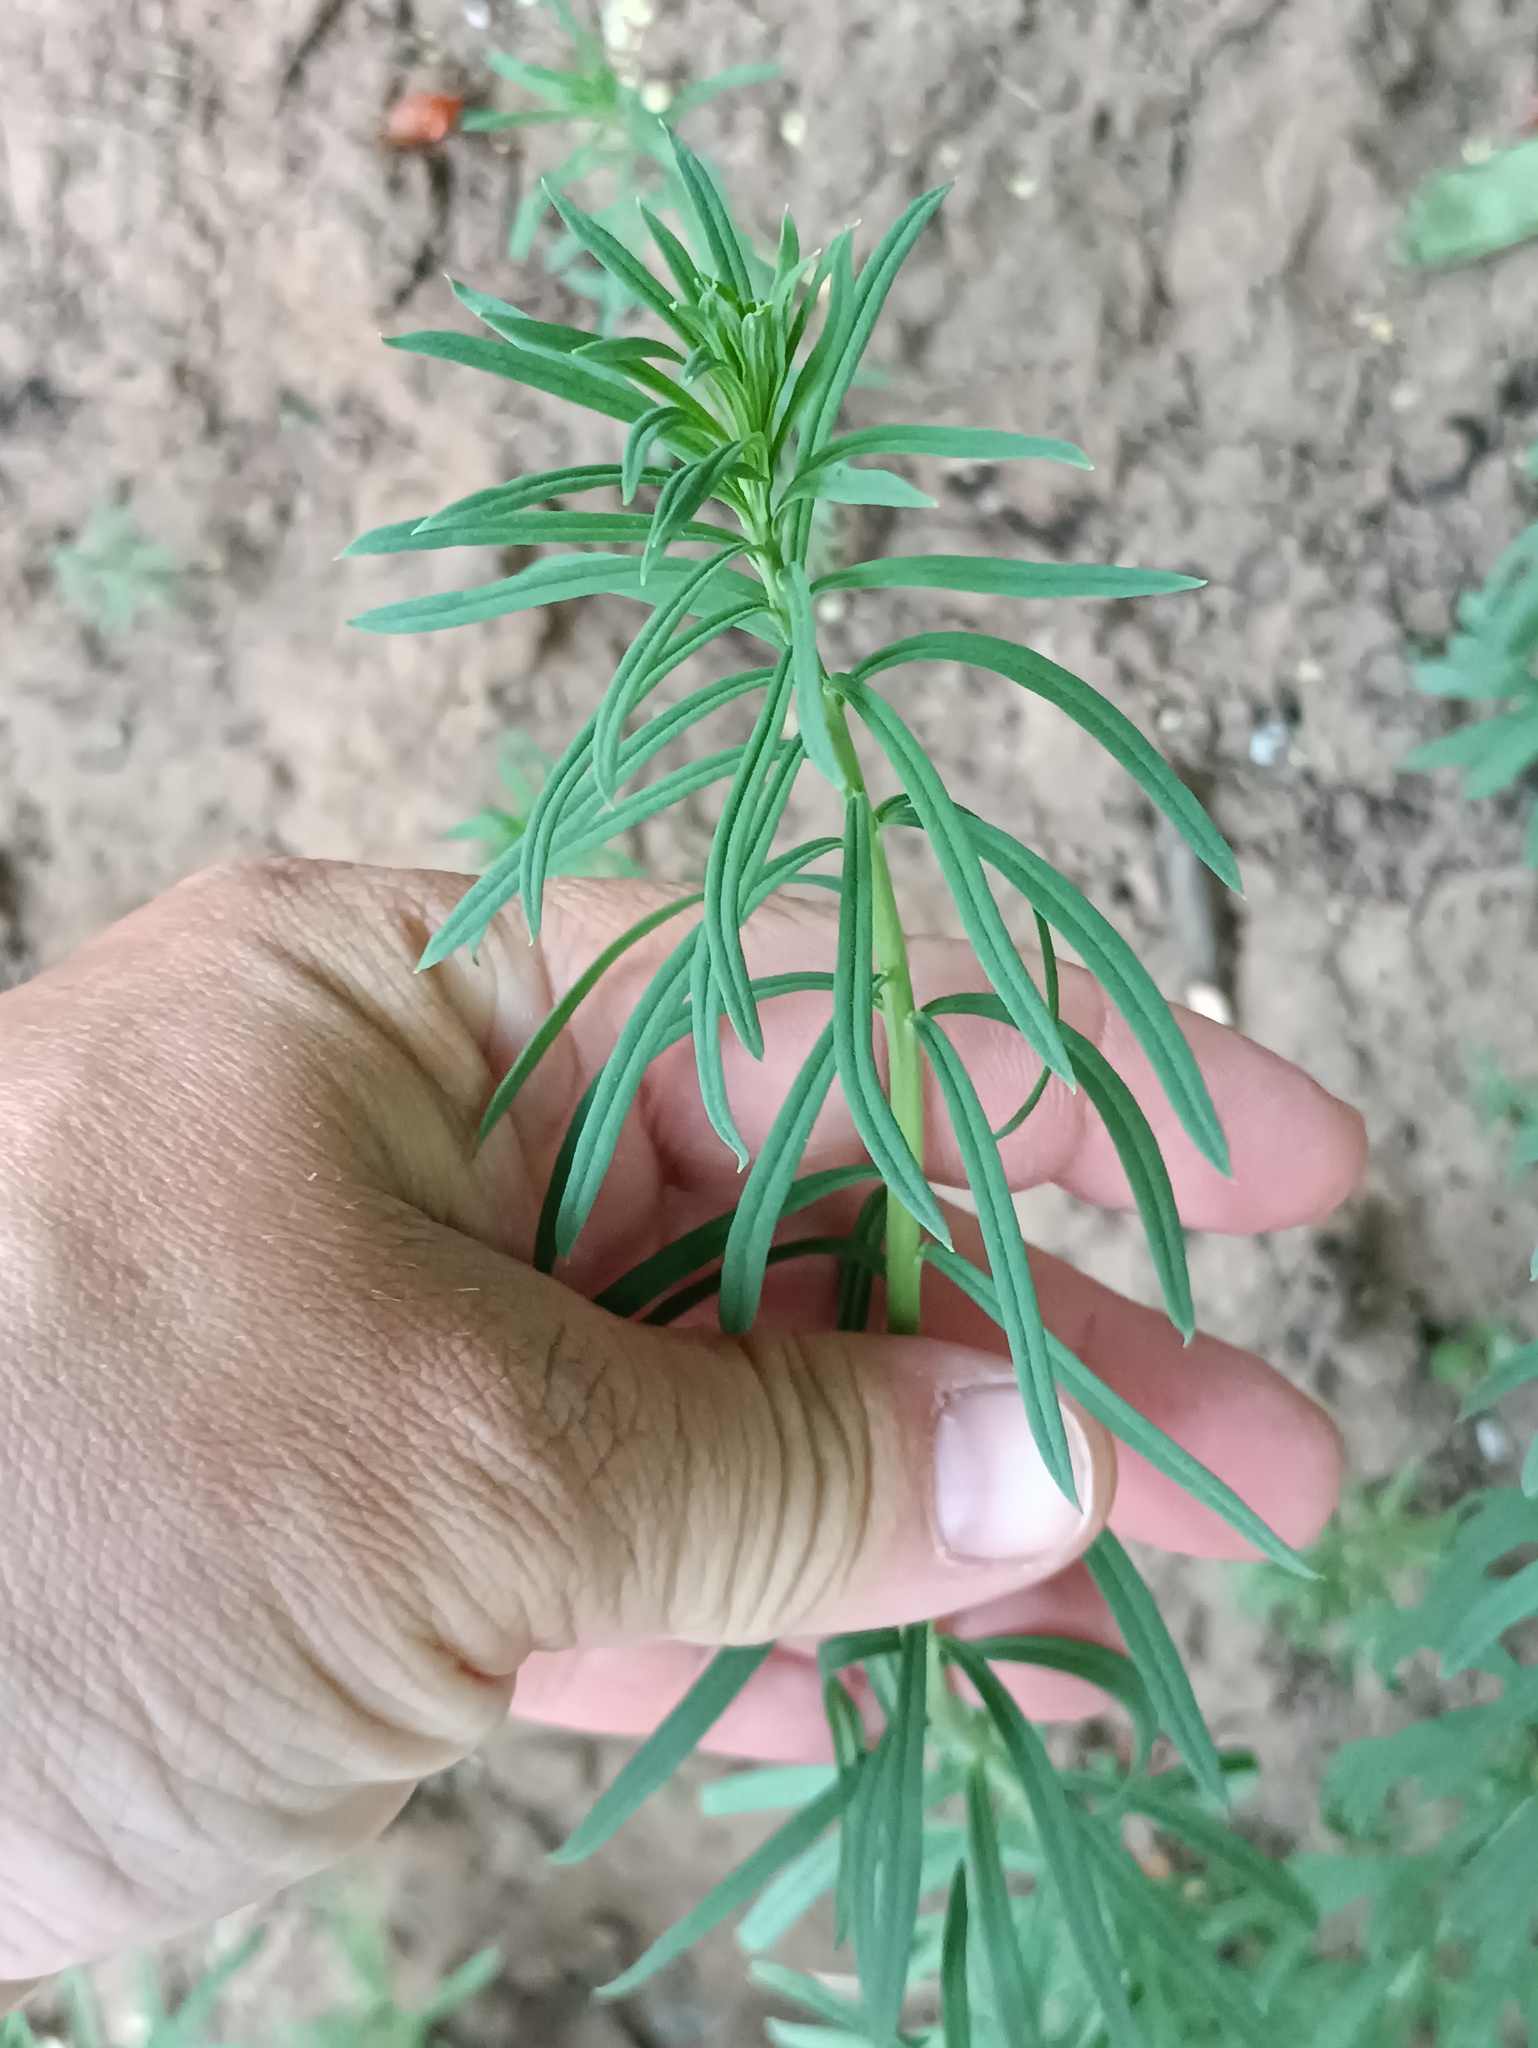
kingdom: Plantae
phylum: Tracheophyta
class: Magnoliopsida
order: Lamiales
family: Plantaginaceae
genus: Linaria
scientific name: Linaria vulgaris
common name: Butter and eggs
